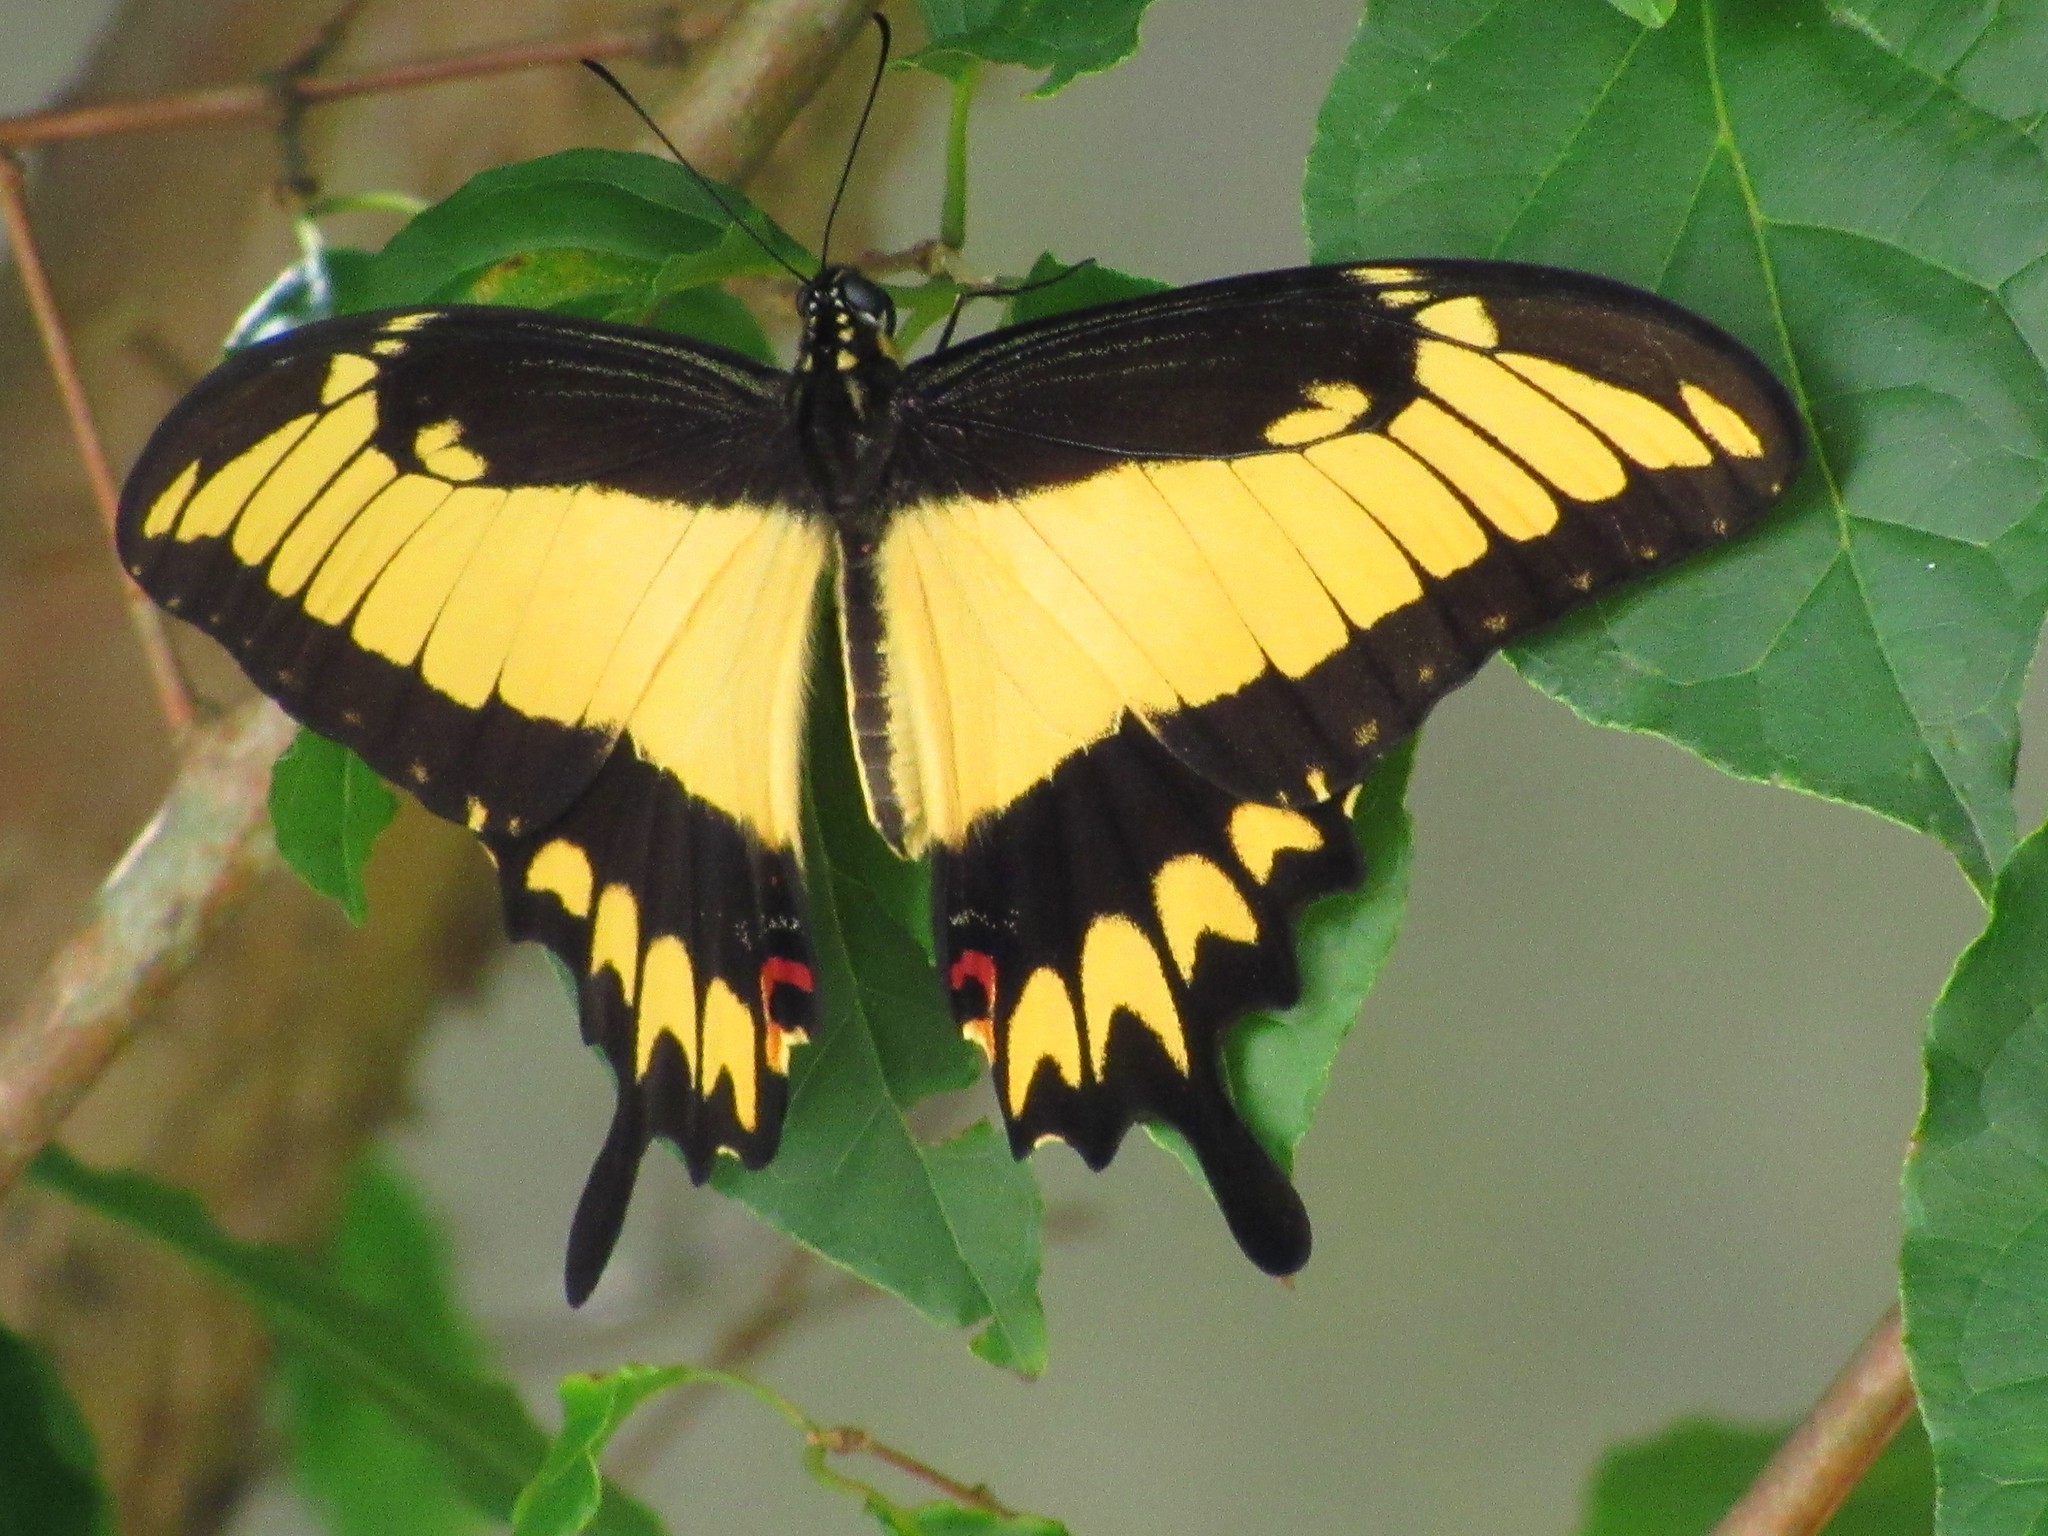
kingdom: Animalia
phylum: Arthropoda
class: Insecta
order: Lepidoptera
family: Papilionidae
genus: Papilio
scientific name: Papilio astyalus
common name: Astyalus swallowtail
